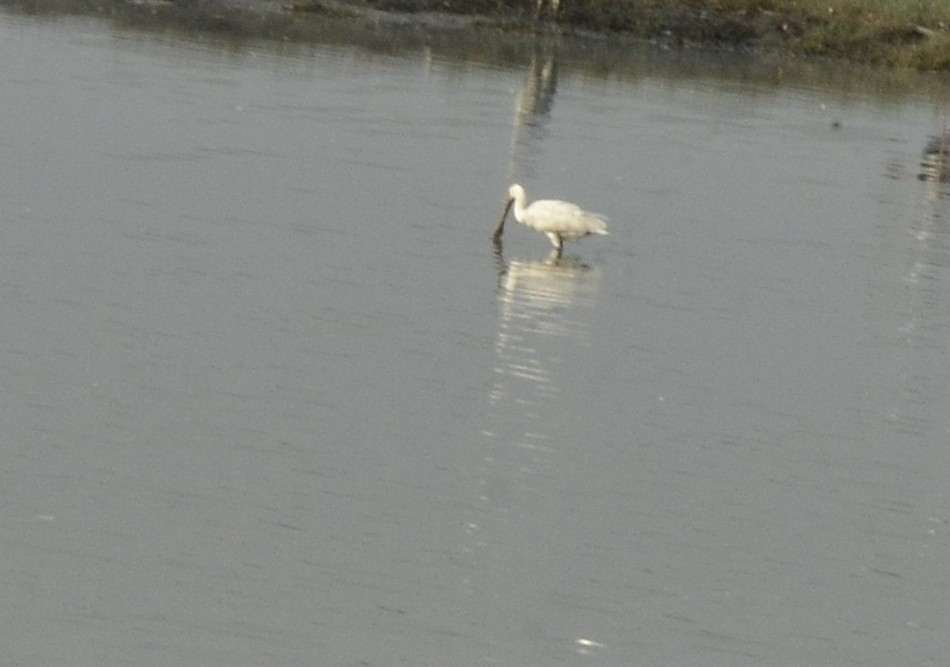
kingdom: Animalia
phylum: Chordata
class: Aves
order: Pelecaniformes
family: Threskiornithidae
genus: Platalea
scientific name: Platalea leucorodia
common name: Eurasian spoonbill
